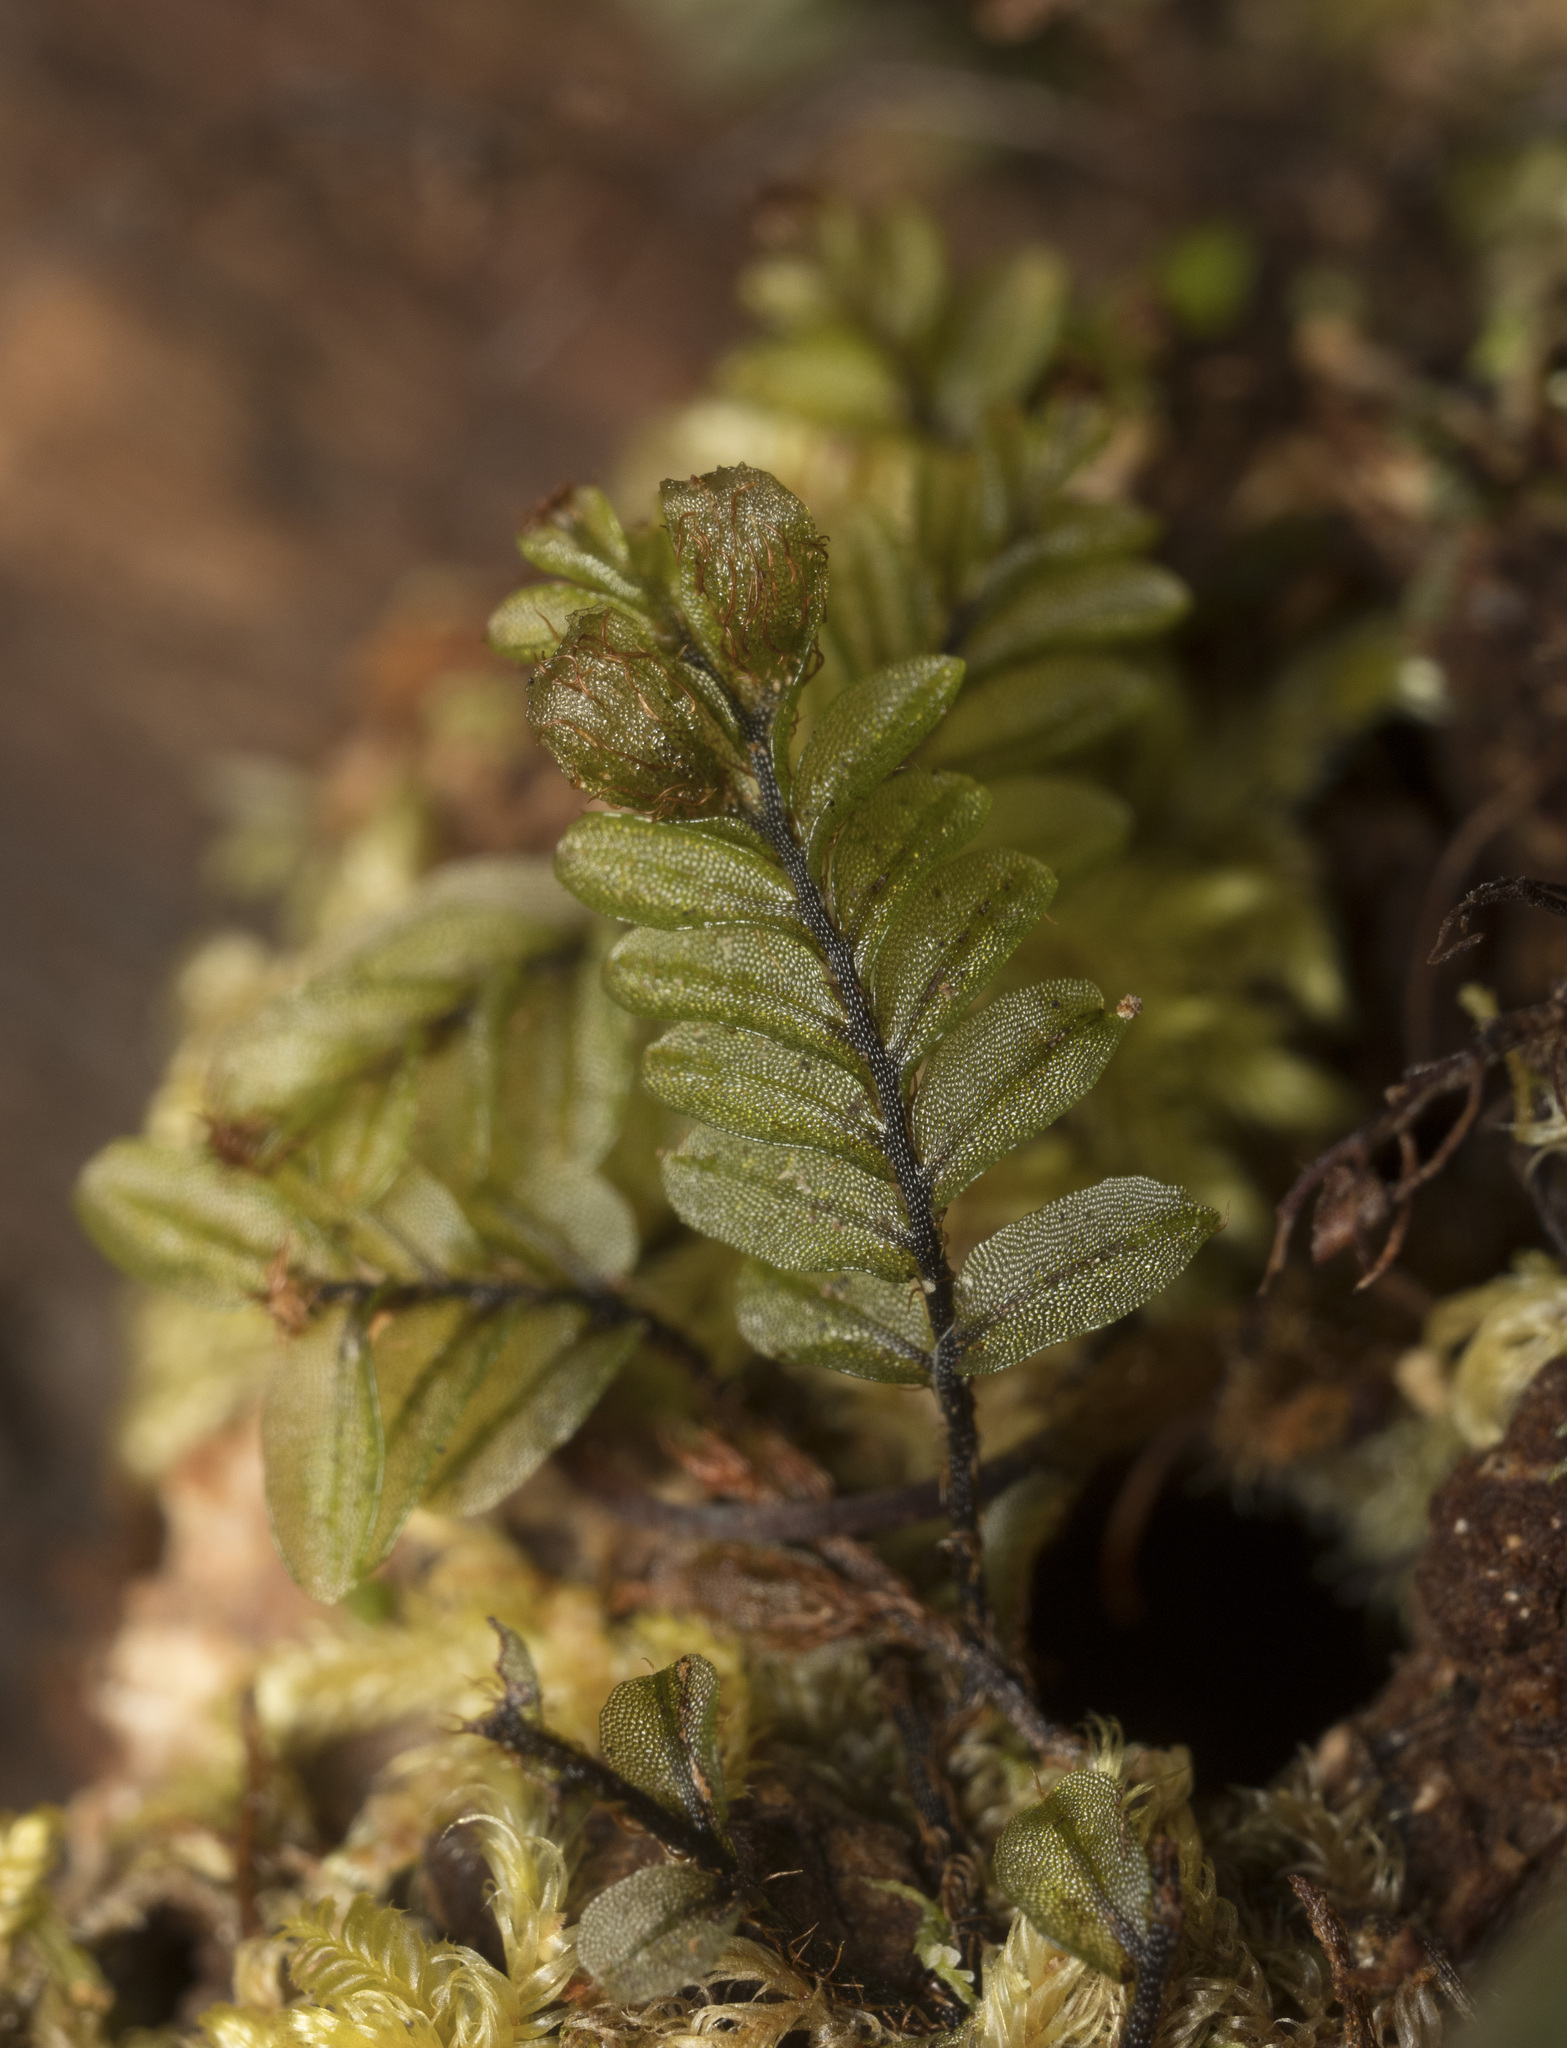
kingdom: Plantae
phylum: Tracheophyta
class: Polypodiopsida
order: Hymenophyllales
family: Hymenophyllaceae
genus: Hymenophyllum
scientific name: Hymenophyllum caespitosum
